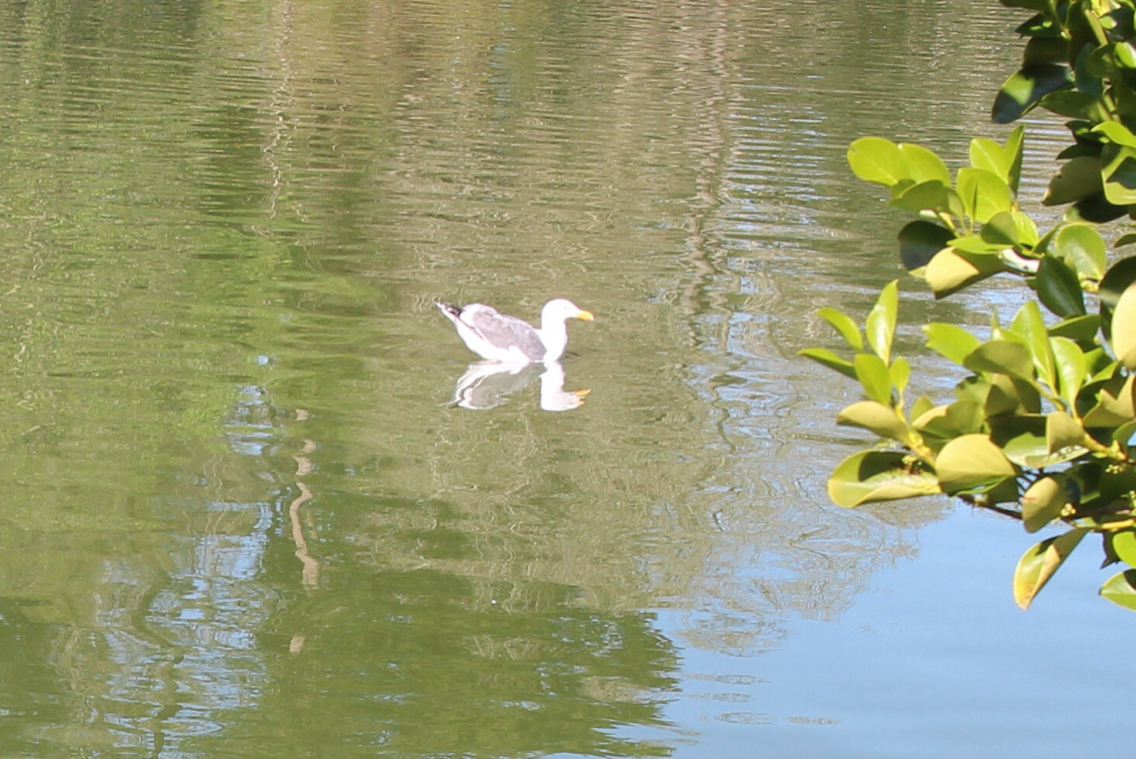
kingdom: Animalia
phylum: Chordata
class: Aves
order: Charadriiformes
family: Laridae
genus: Larus
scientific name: Larus occidentalis
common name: Western gull
